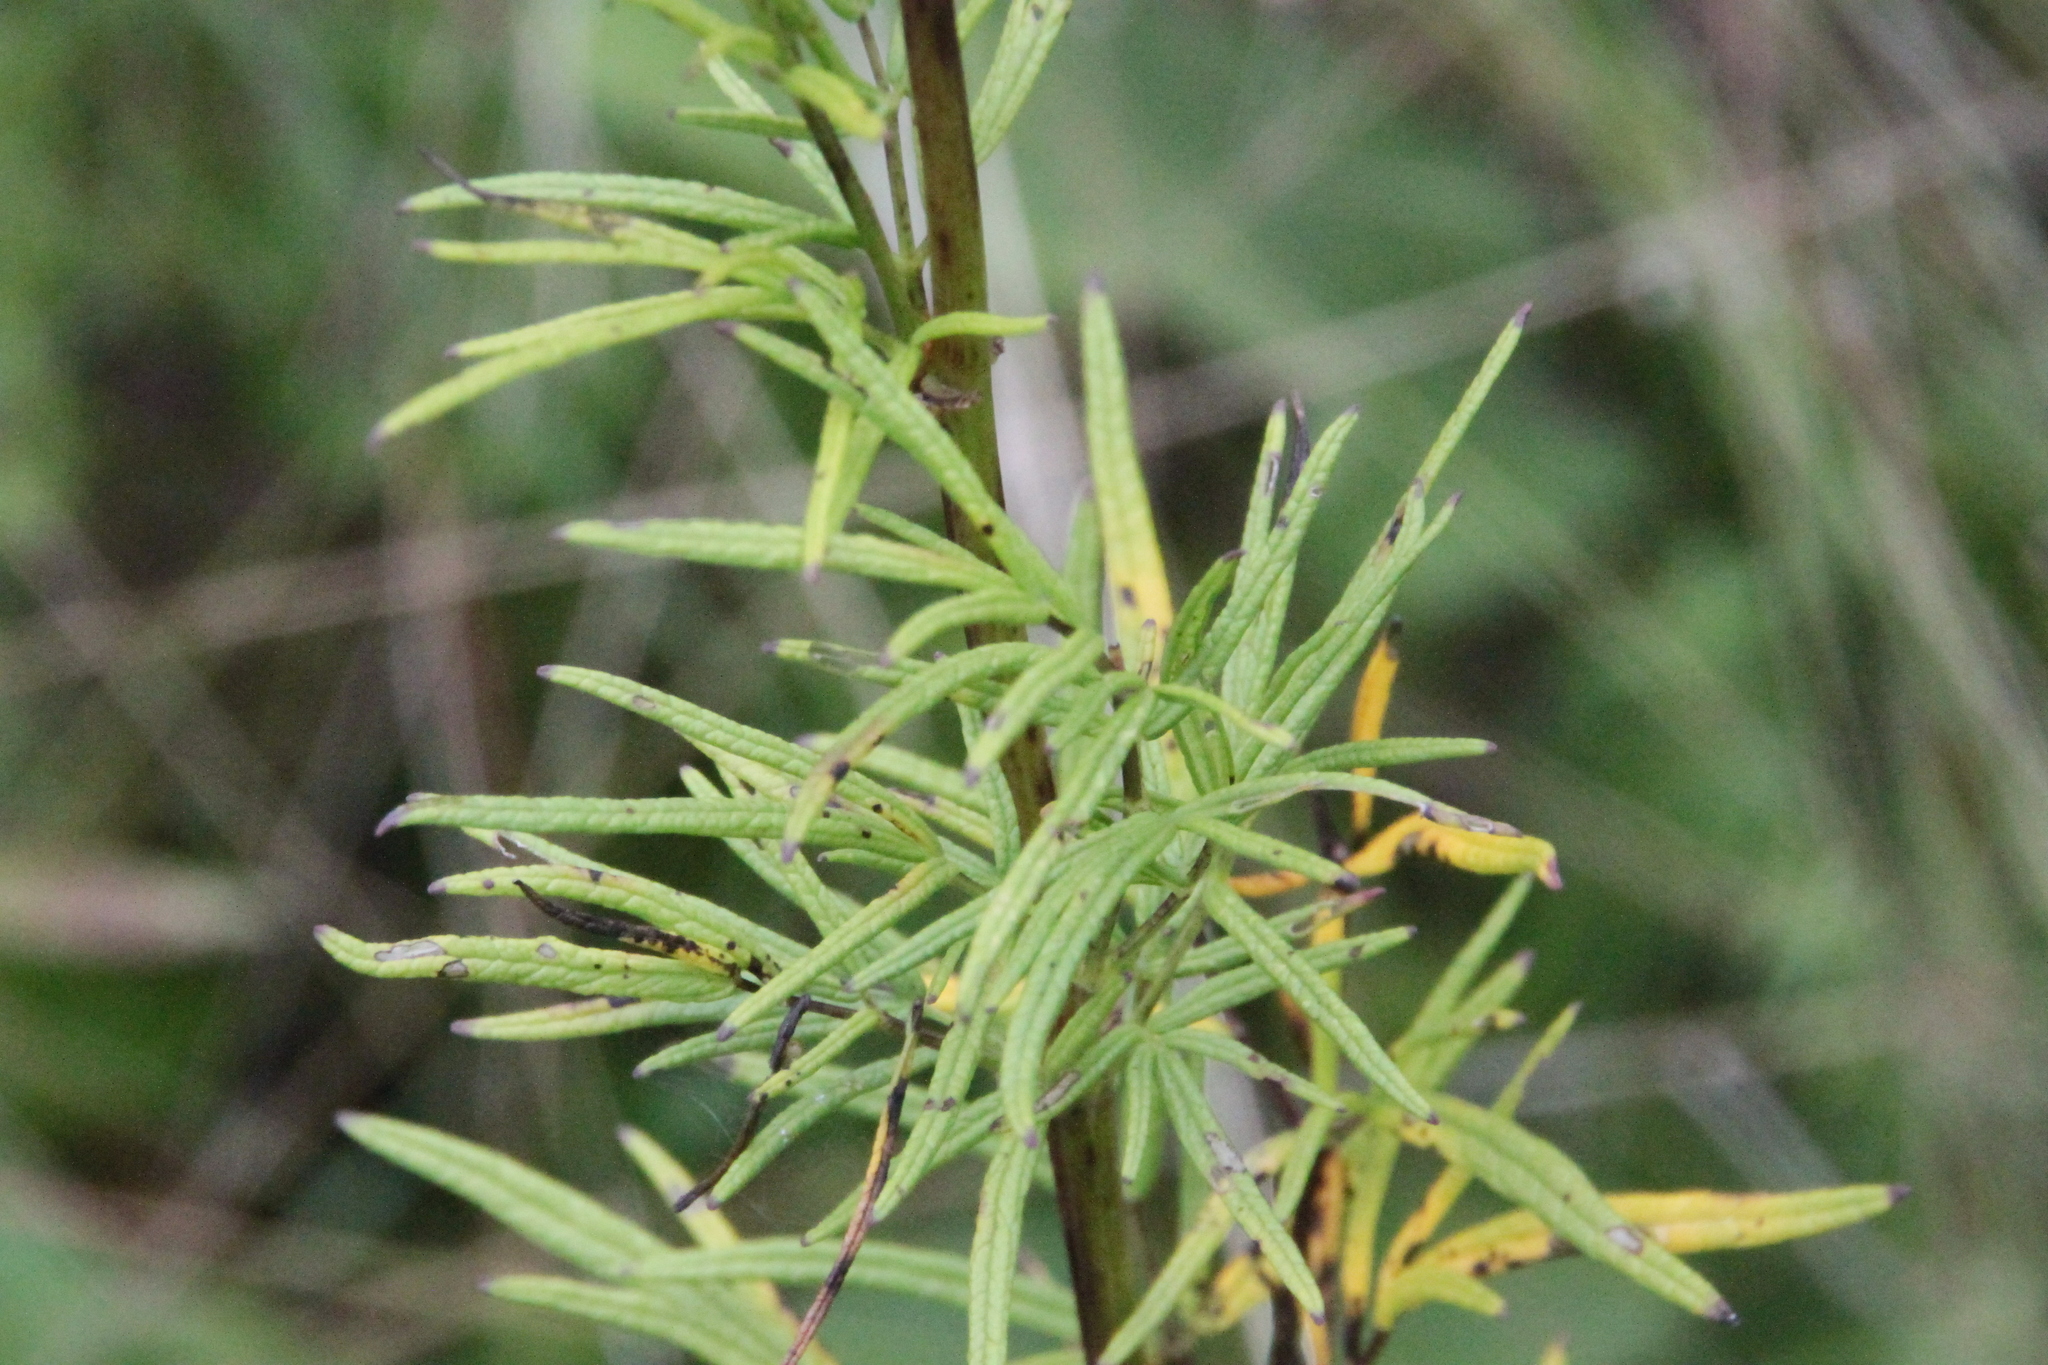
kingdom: Plantae
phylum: Tracheophyta
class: Magnoliopsida
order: Ranunculales
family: Ranunculaceae
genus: Thalictrum
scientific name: Thalictrum lucidum
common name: Shining meadow-rue
